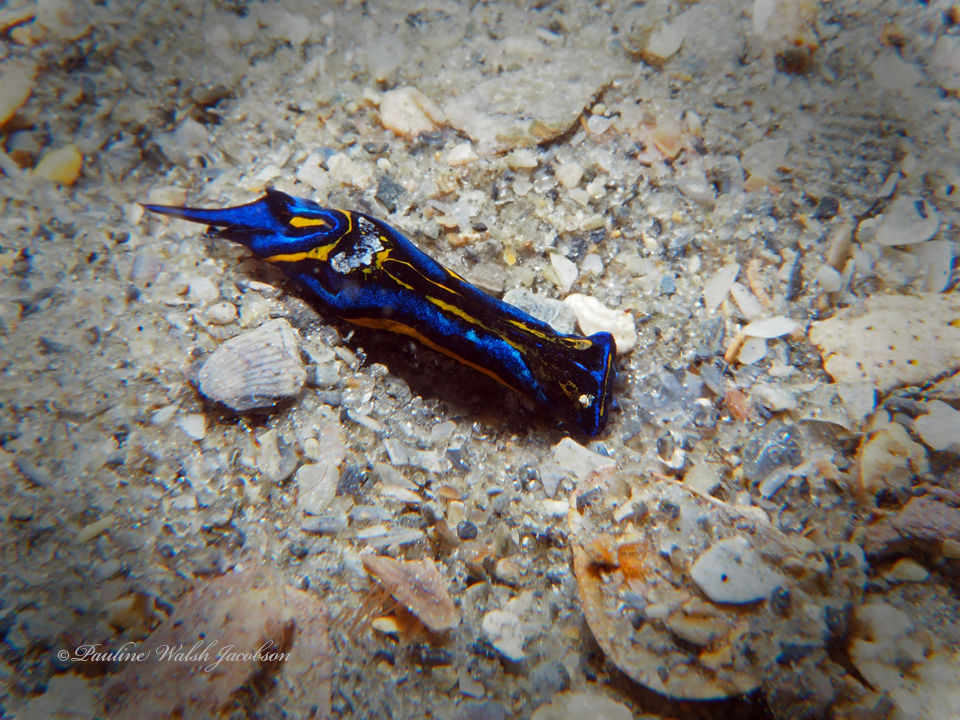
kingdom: Animalia
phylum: Mollusca
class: Gastropoda
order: Cephalaspidea
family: Aglajidae
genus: Chelidonura
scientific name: Chelidonura hirundinina
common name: Leech headshield slug
